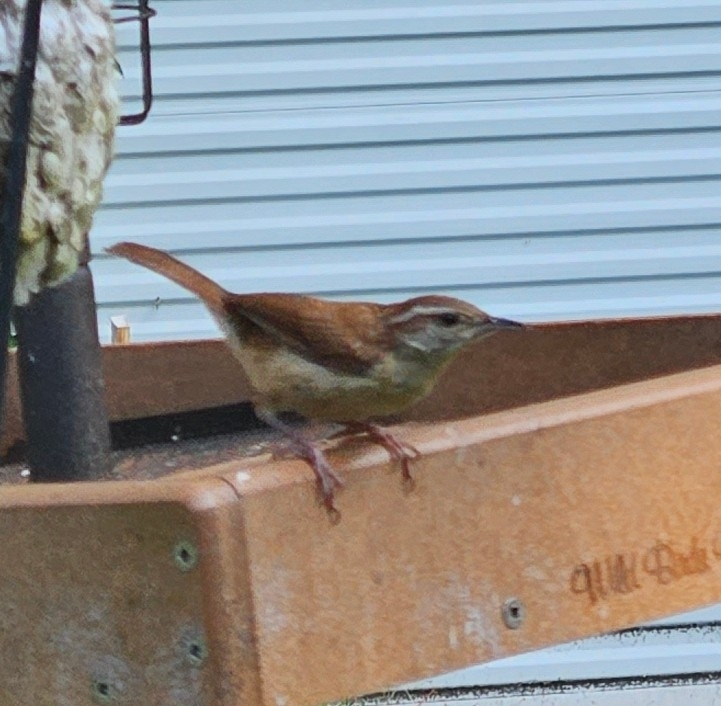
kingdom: Animalia
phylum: Chordata
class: Aves
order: Passeriformes
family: Troglodytidae
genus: Thryothorus
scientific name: Thryothorus ludovicianus
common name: Carolina wren
